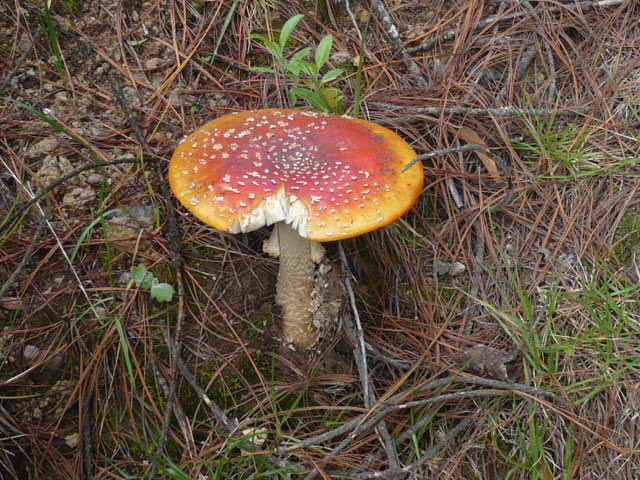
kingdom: Fungi
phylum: Basidiomycota
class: Agaricomycetes
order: Agaricales
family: Amanitaceae
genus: Amanita
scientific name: Amanita muscaria
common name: Fly agaric
